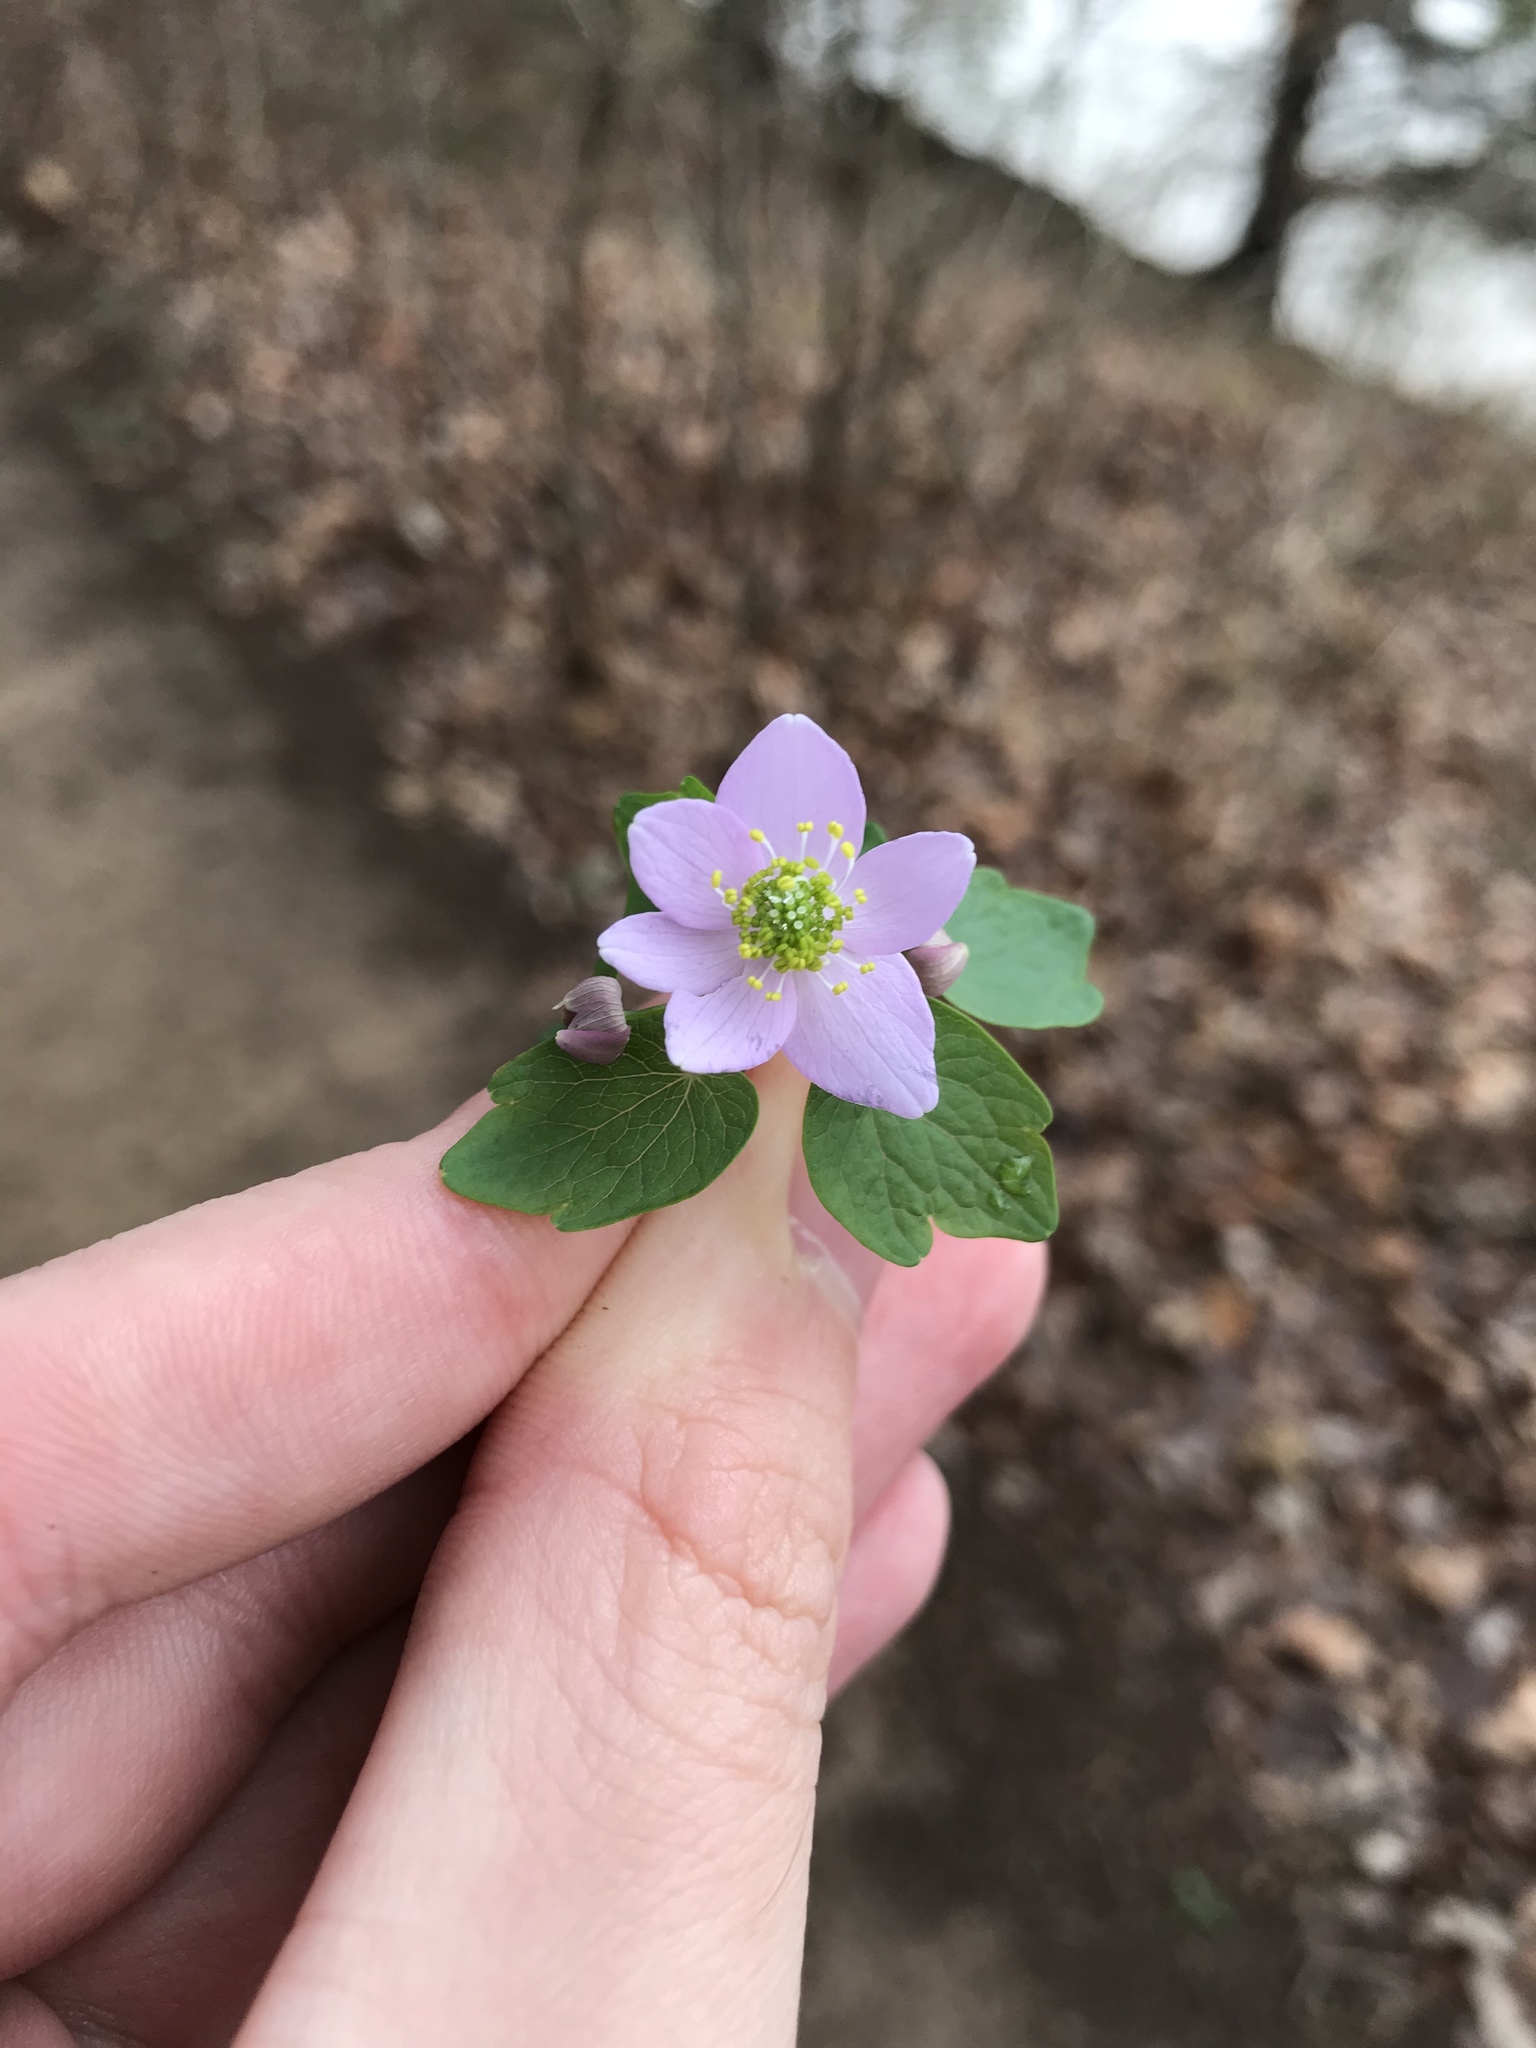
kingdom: Plantae
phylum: Tracheophyta
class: Magnoliopsida
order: Ranunculales
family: Ranunculaceae
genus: Thalictrum
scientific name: Thalictrum thalictroides
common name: Rue-anemone
